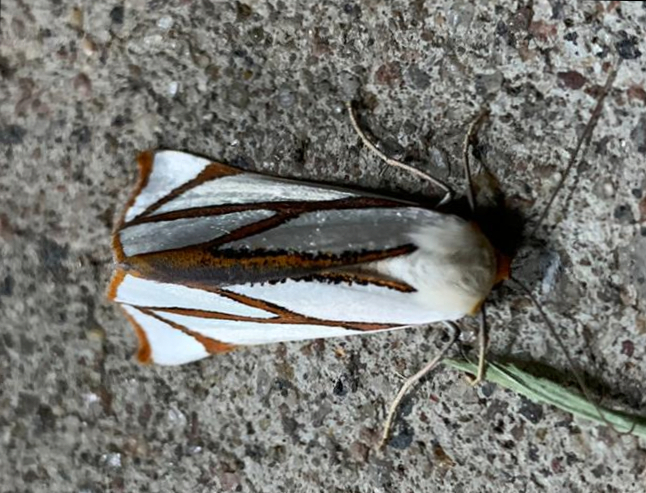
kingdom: Animalia
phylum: Arthropoda
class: Insecta
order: Lepidoptera
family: Geometridae
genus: Thalaina
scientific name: Thalaina angulosa
